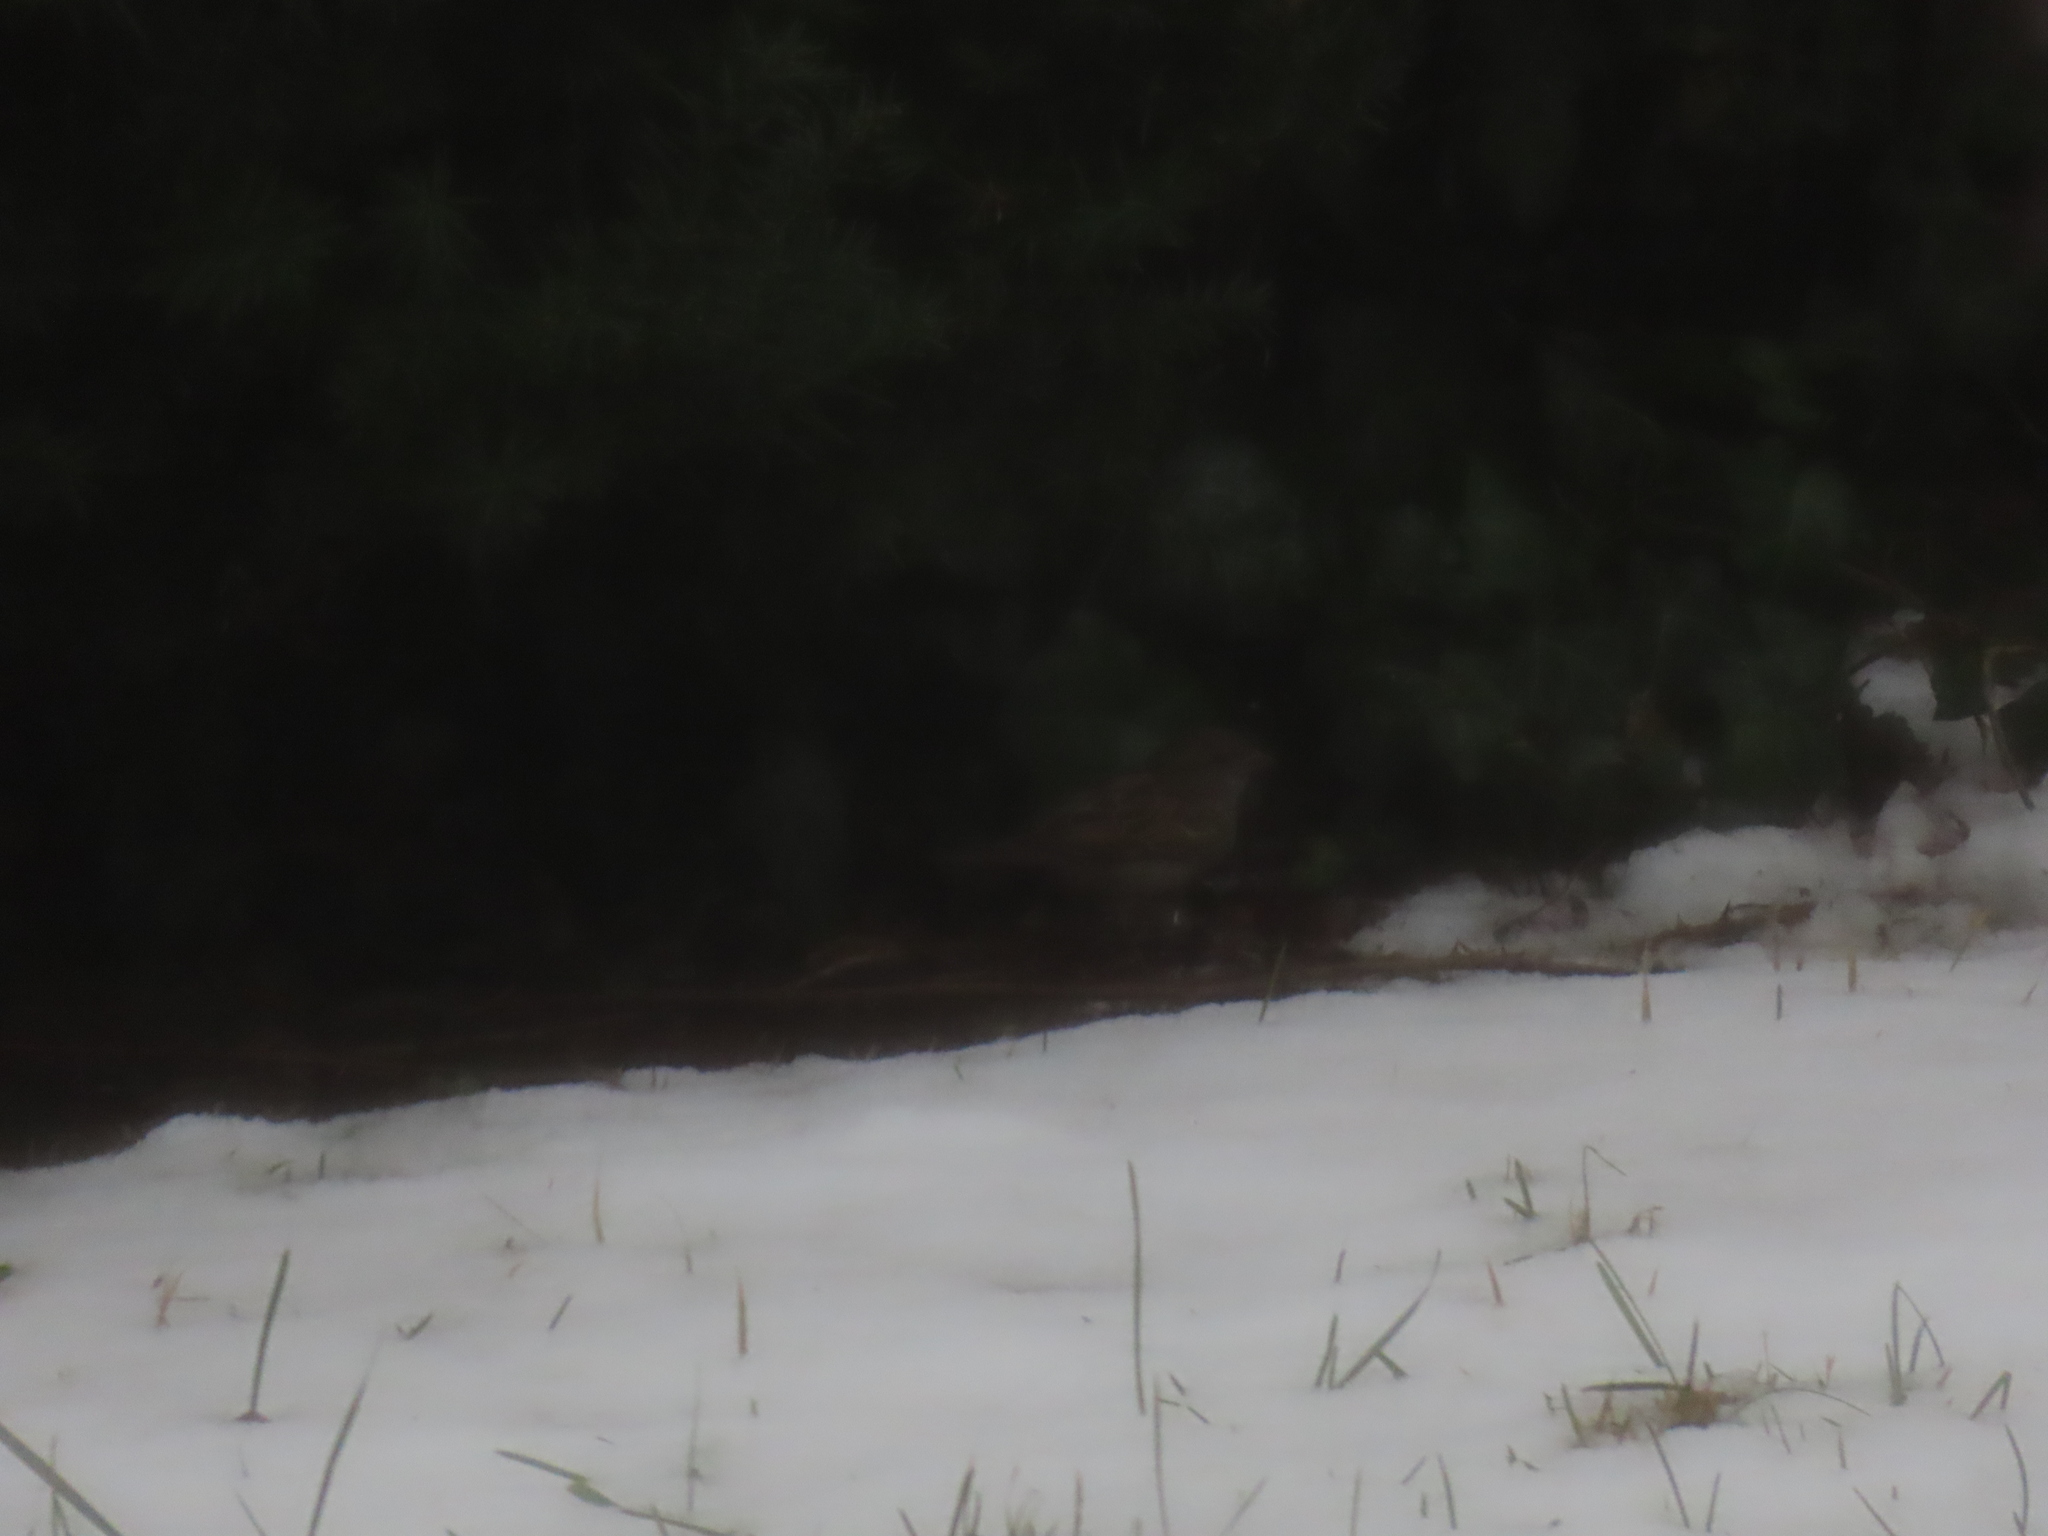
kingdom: Animalia
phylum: Chordata
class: Aves
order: Passeriformes
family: Passeridae
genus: Passer
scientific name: Passer domesticus
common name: House sparrow
